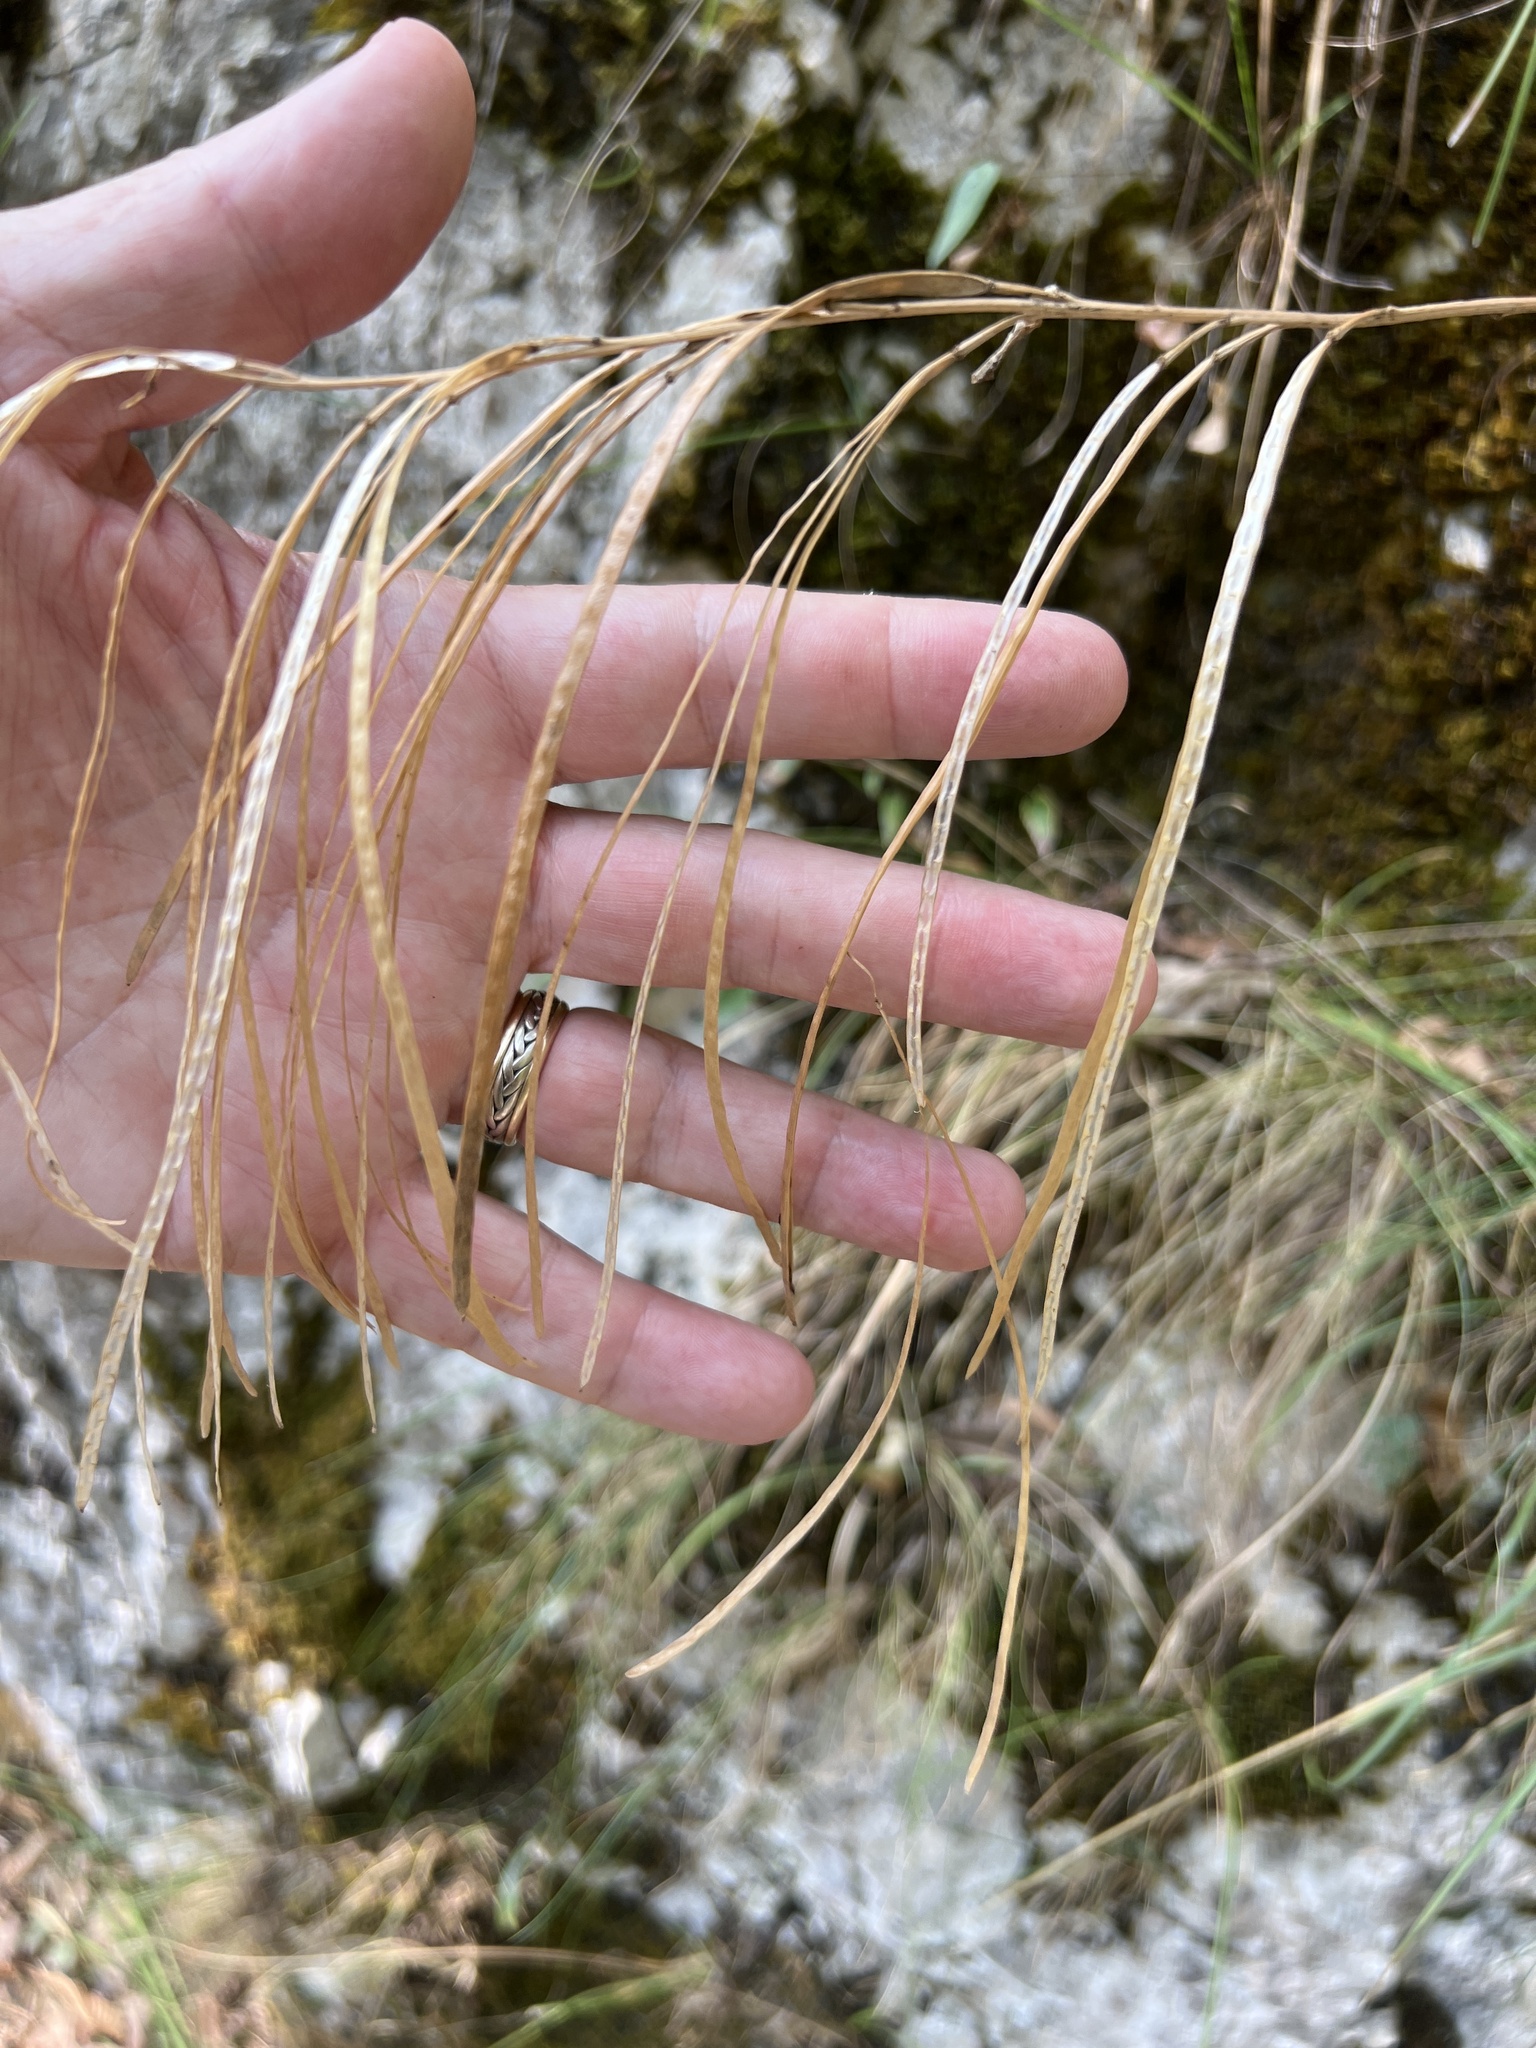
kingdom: Plantae
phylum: Tracheophyta
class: Magnoliopsida
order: Brassicales
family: Brassicaceae
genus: Pseudoturritis
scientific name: Pseudoturritis turrita
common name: Tower cress
